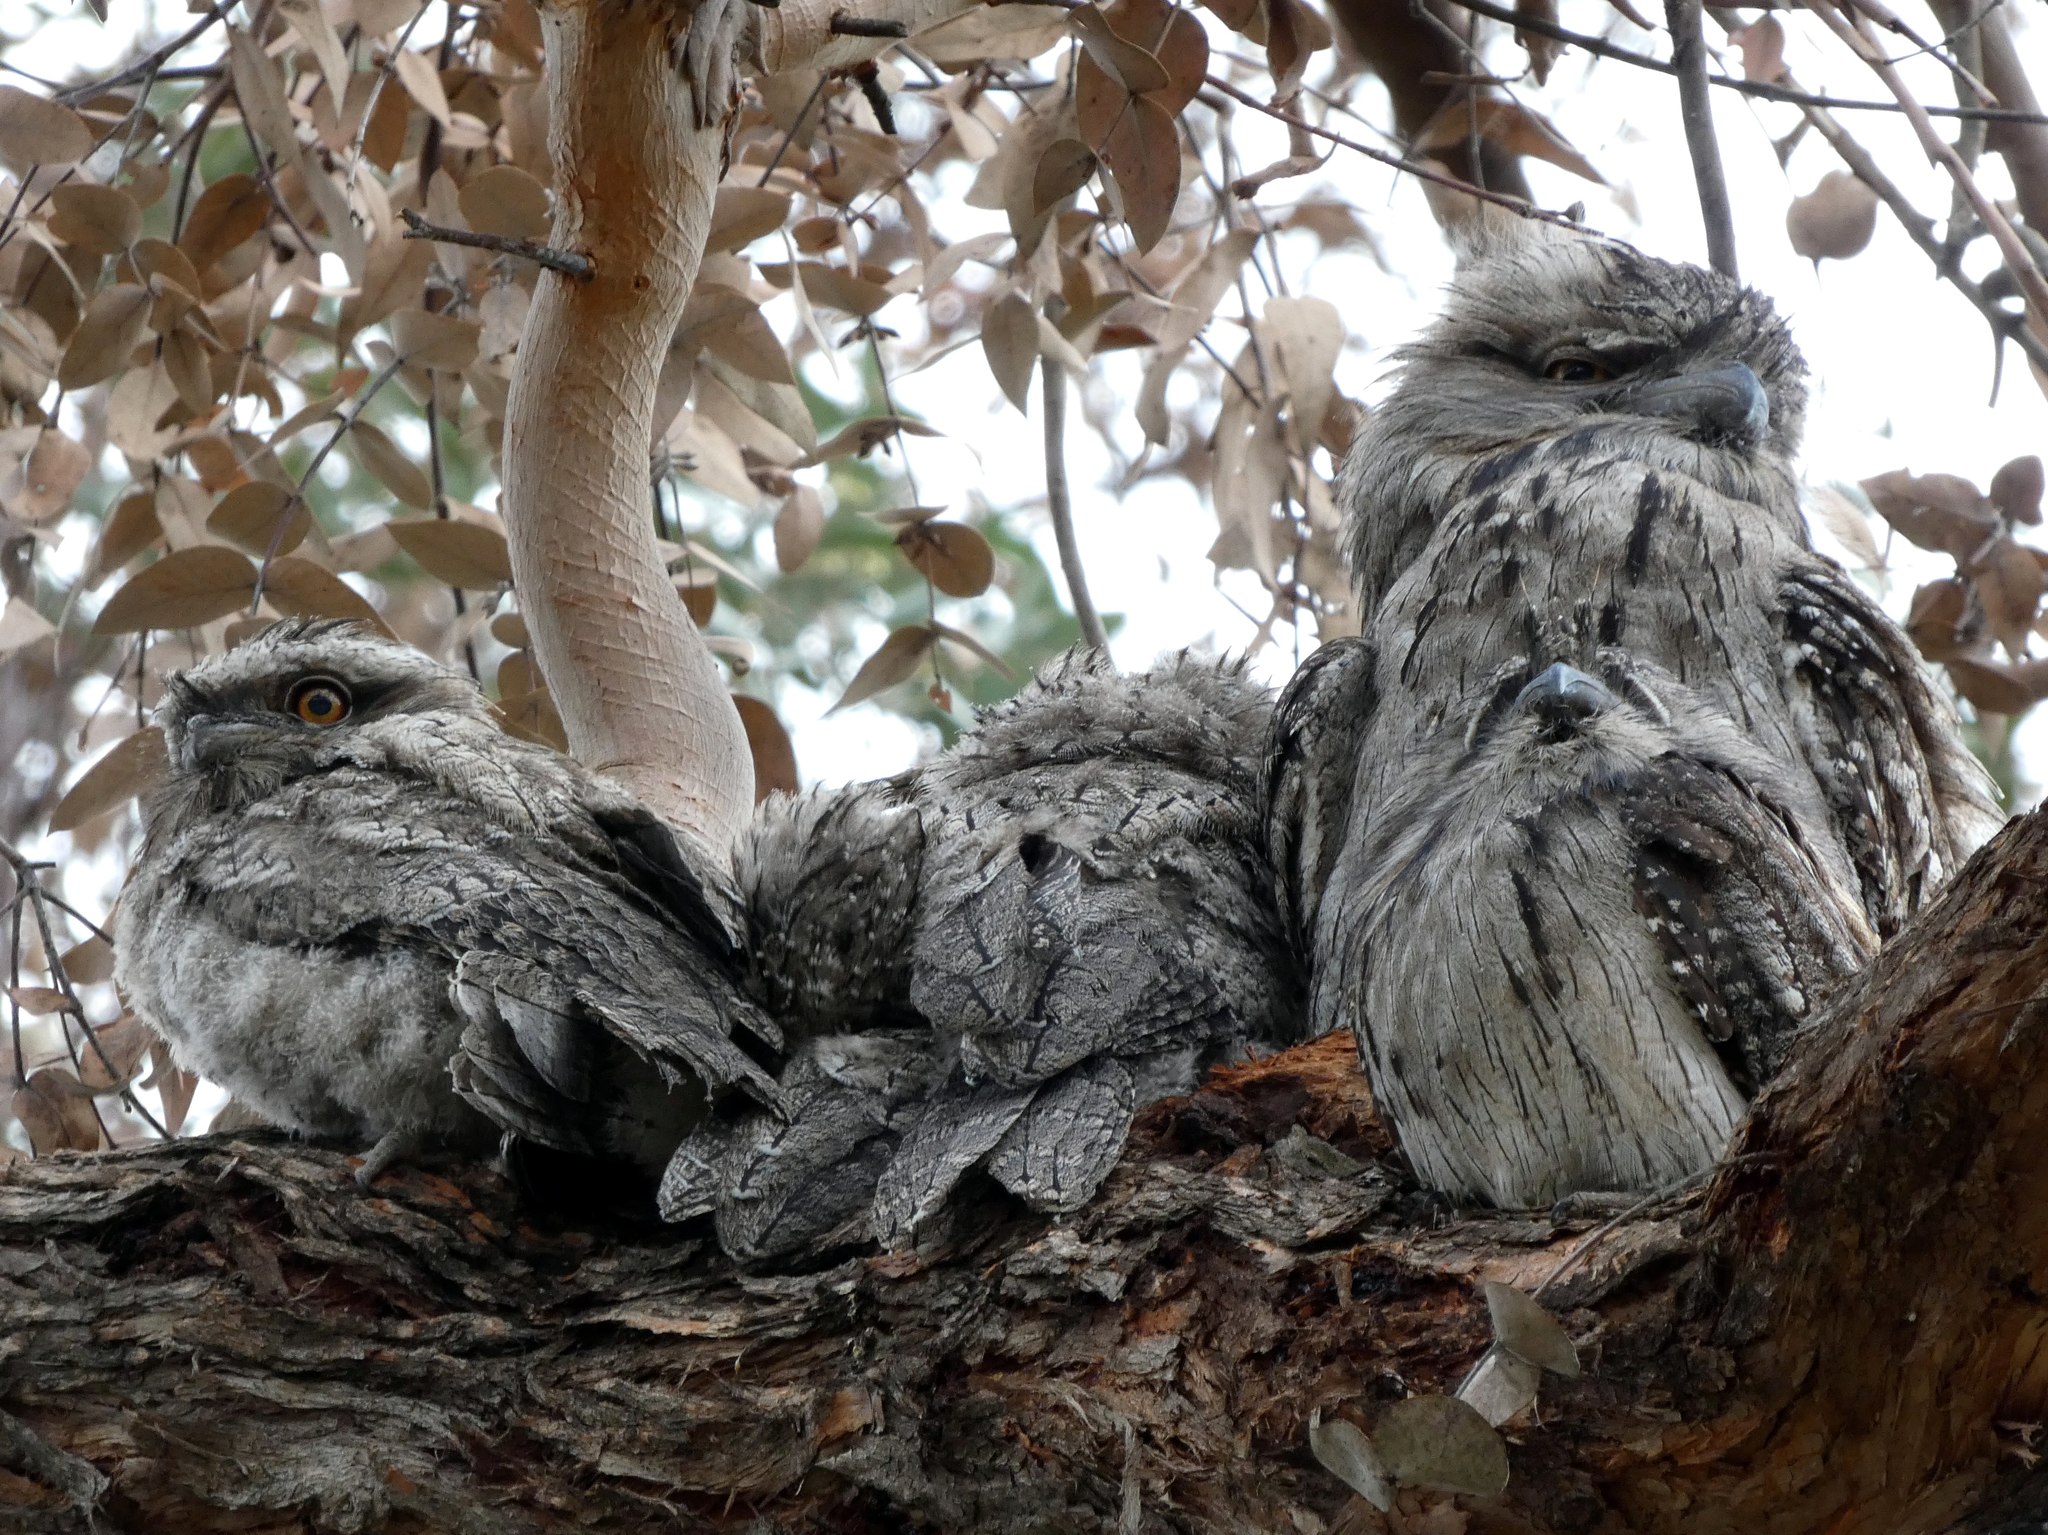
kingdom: Animalia
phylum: Chordata
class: Aves
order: Caprimulgiformes
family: Podargidae
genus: Podargus
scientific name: Podargus strigoides
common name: Tawny frogmouth
